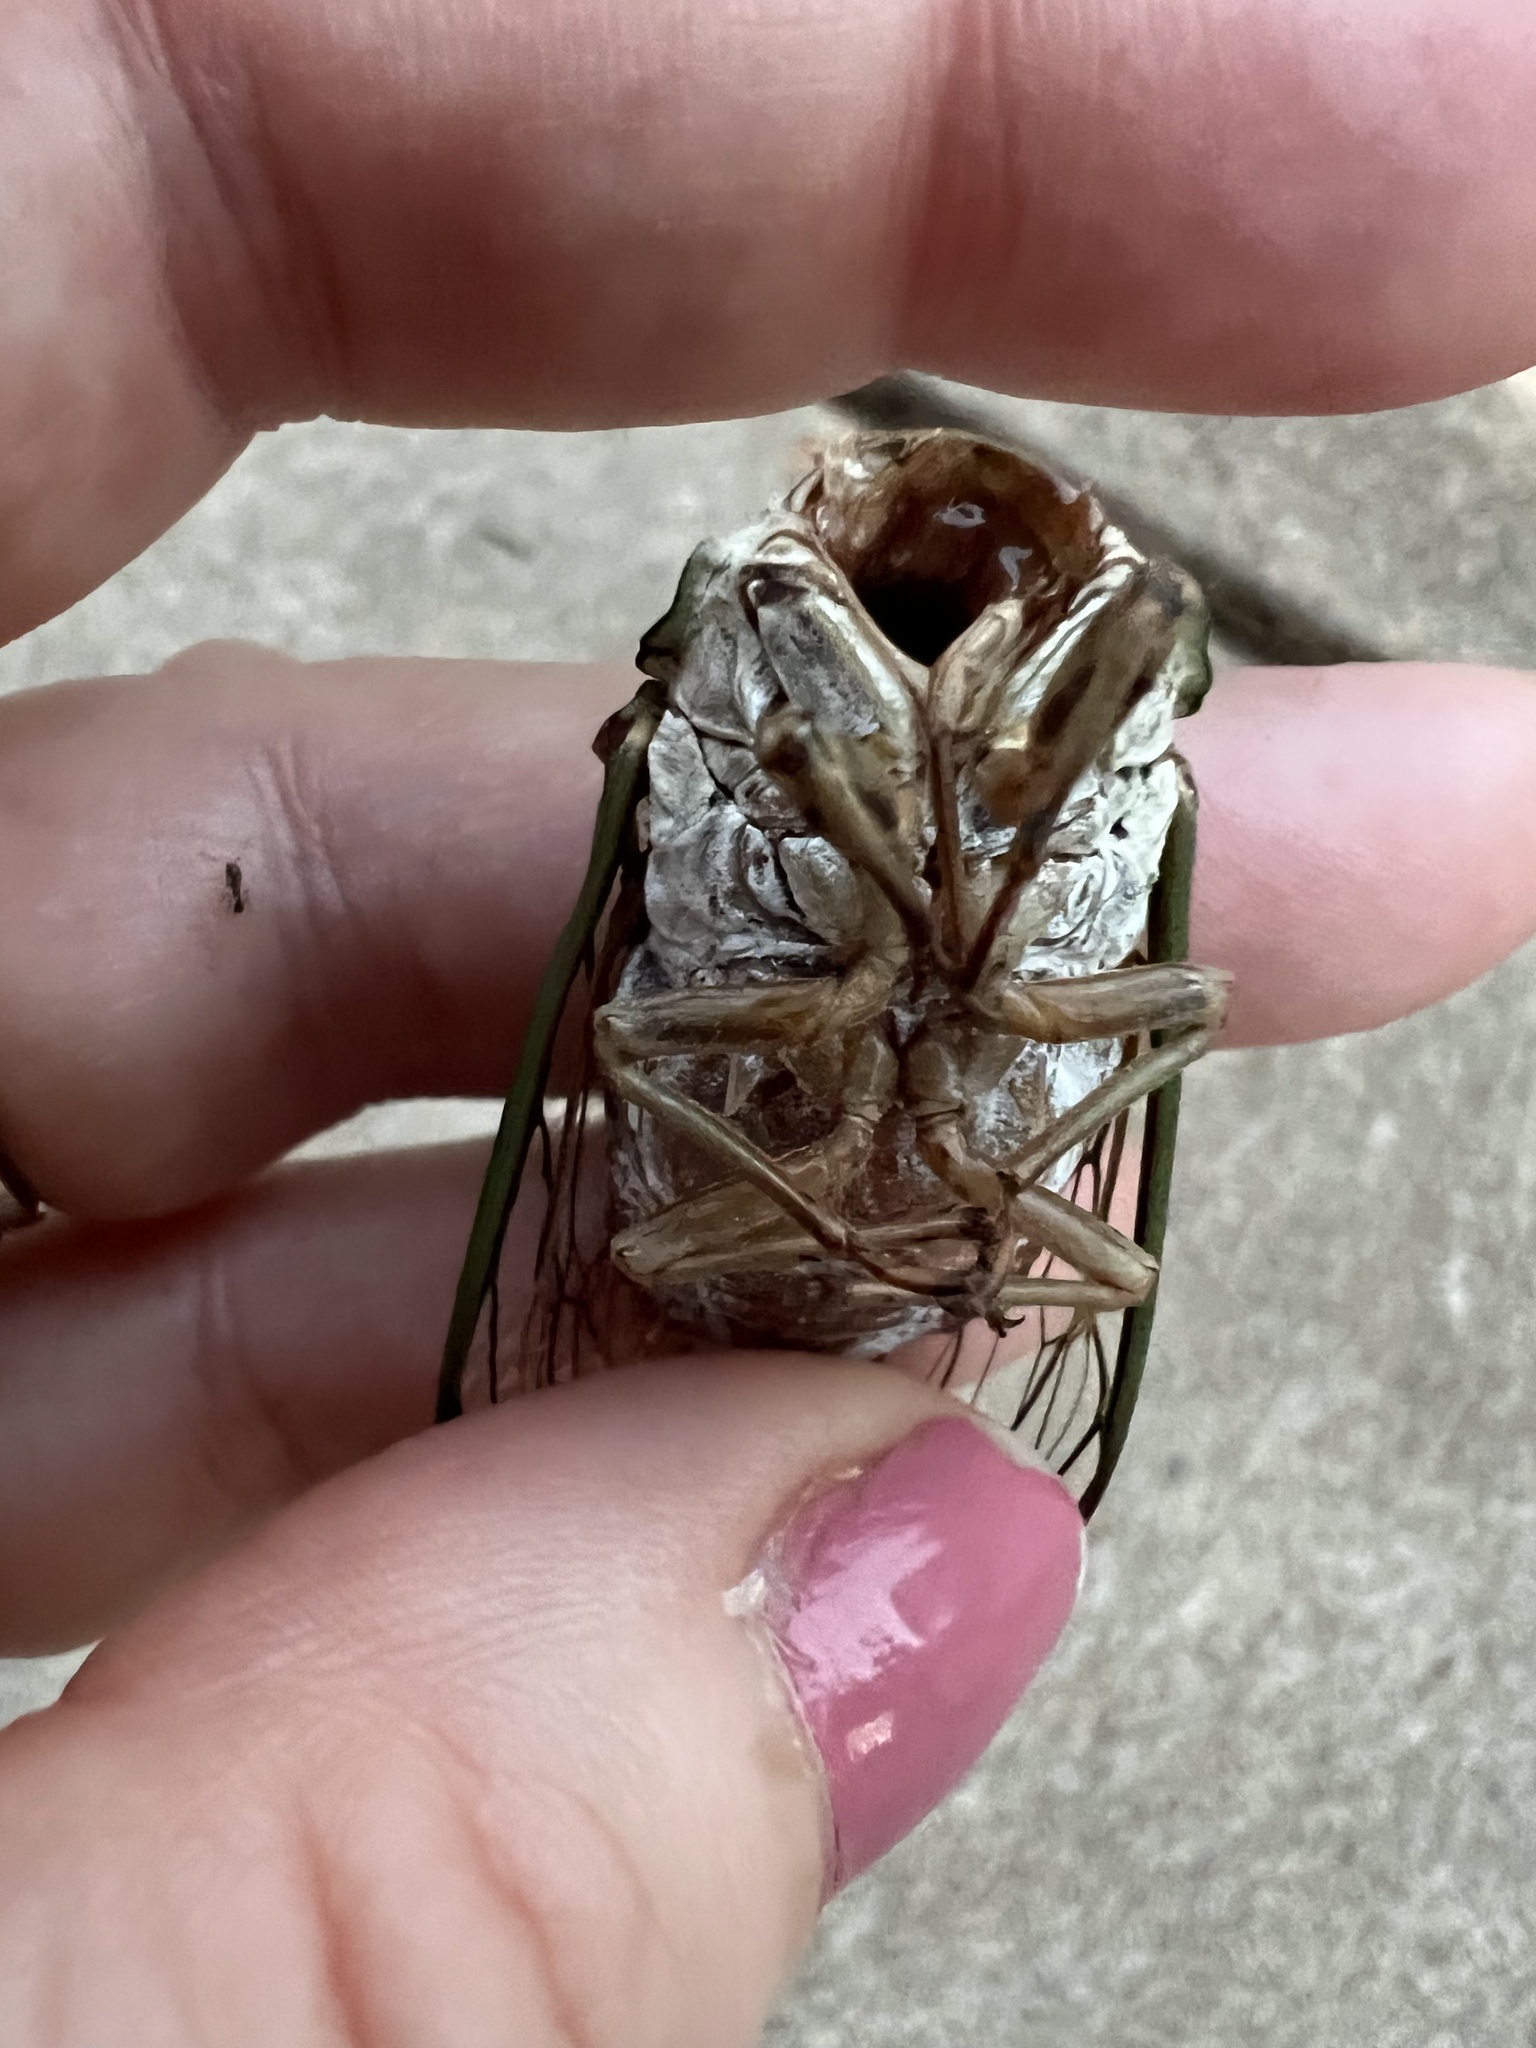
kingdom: Animalia
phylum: Arthropoda
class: Insecta
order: Hemiptera
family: Cicadidae
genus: Megatibicen
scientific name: Megatibicen resh
